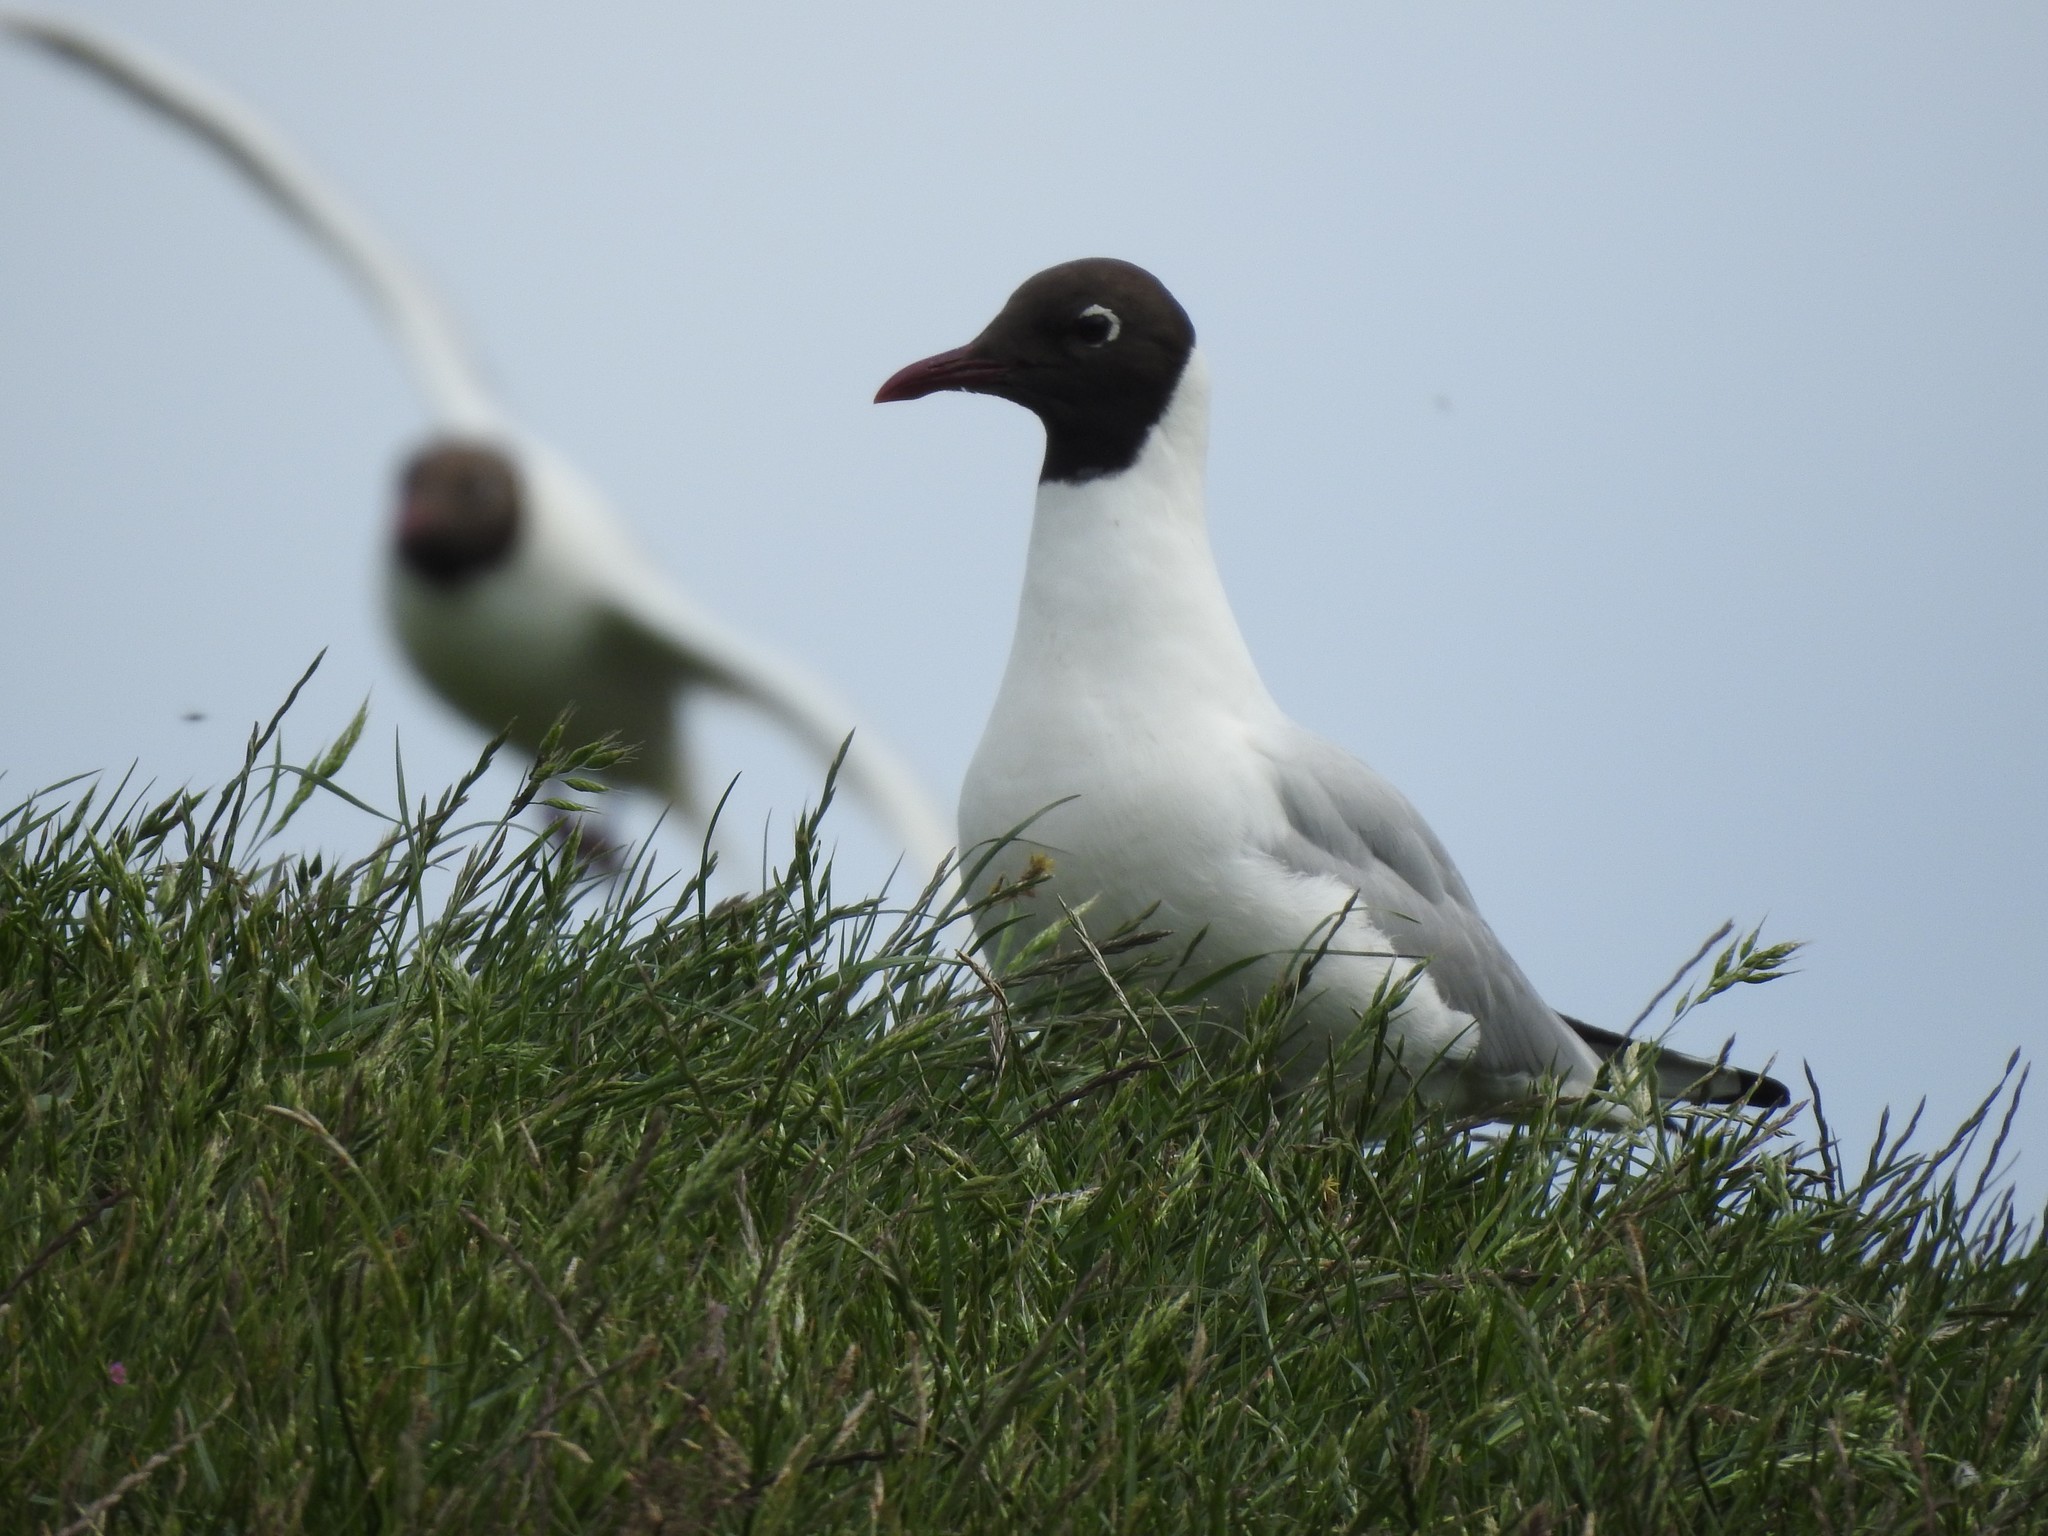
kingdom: Animalia
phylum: Chordata
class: Aves
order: Charadriiformes
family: Laridae
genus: Chroicocephalus
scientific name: Chroicocephalus ridibundus
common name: Black-headed gull
